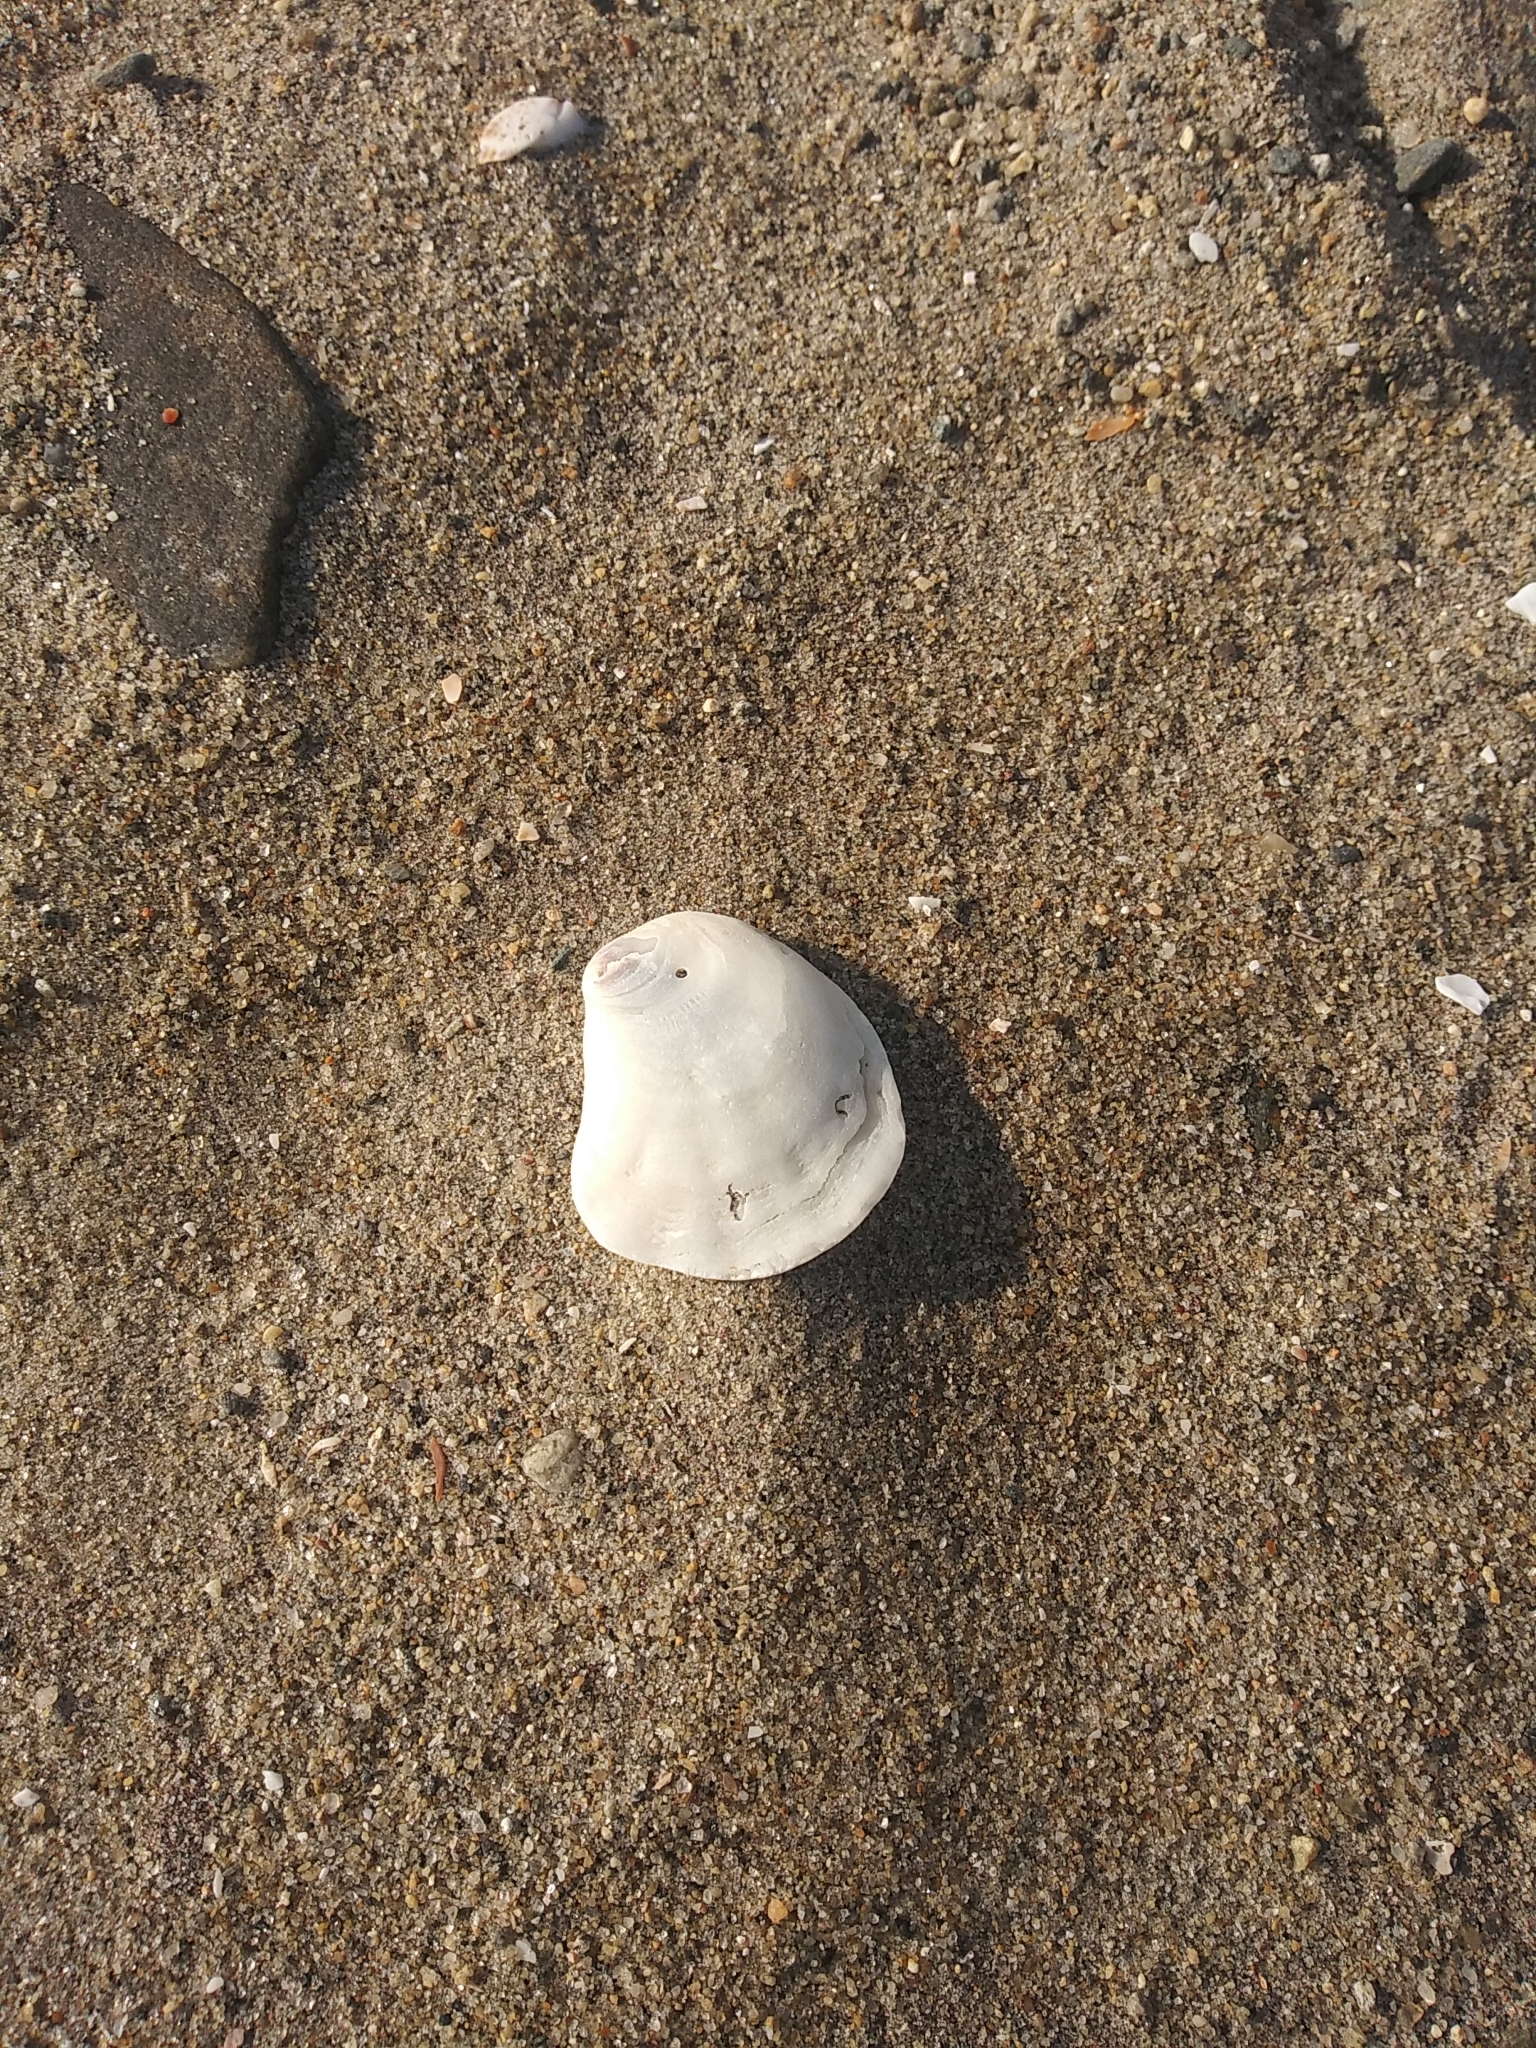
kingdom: Animalia
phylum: Mollusca
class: Bivalvia
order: Ostreida
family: Ostreidae
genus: Crassostrea
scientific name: Crassostrea virginica
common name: American oyster
